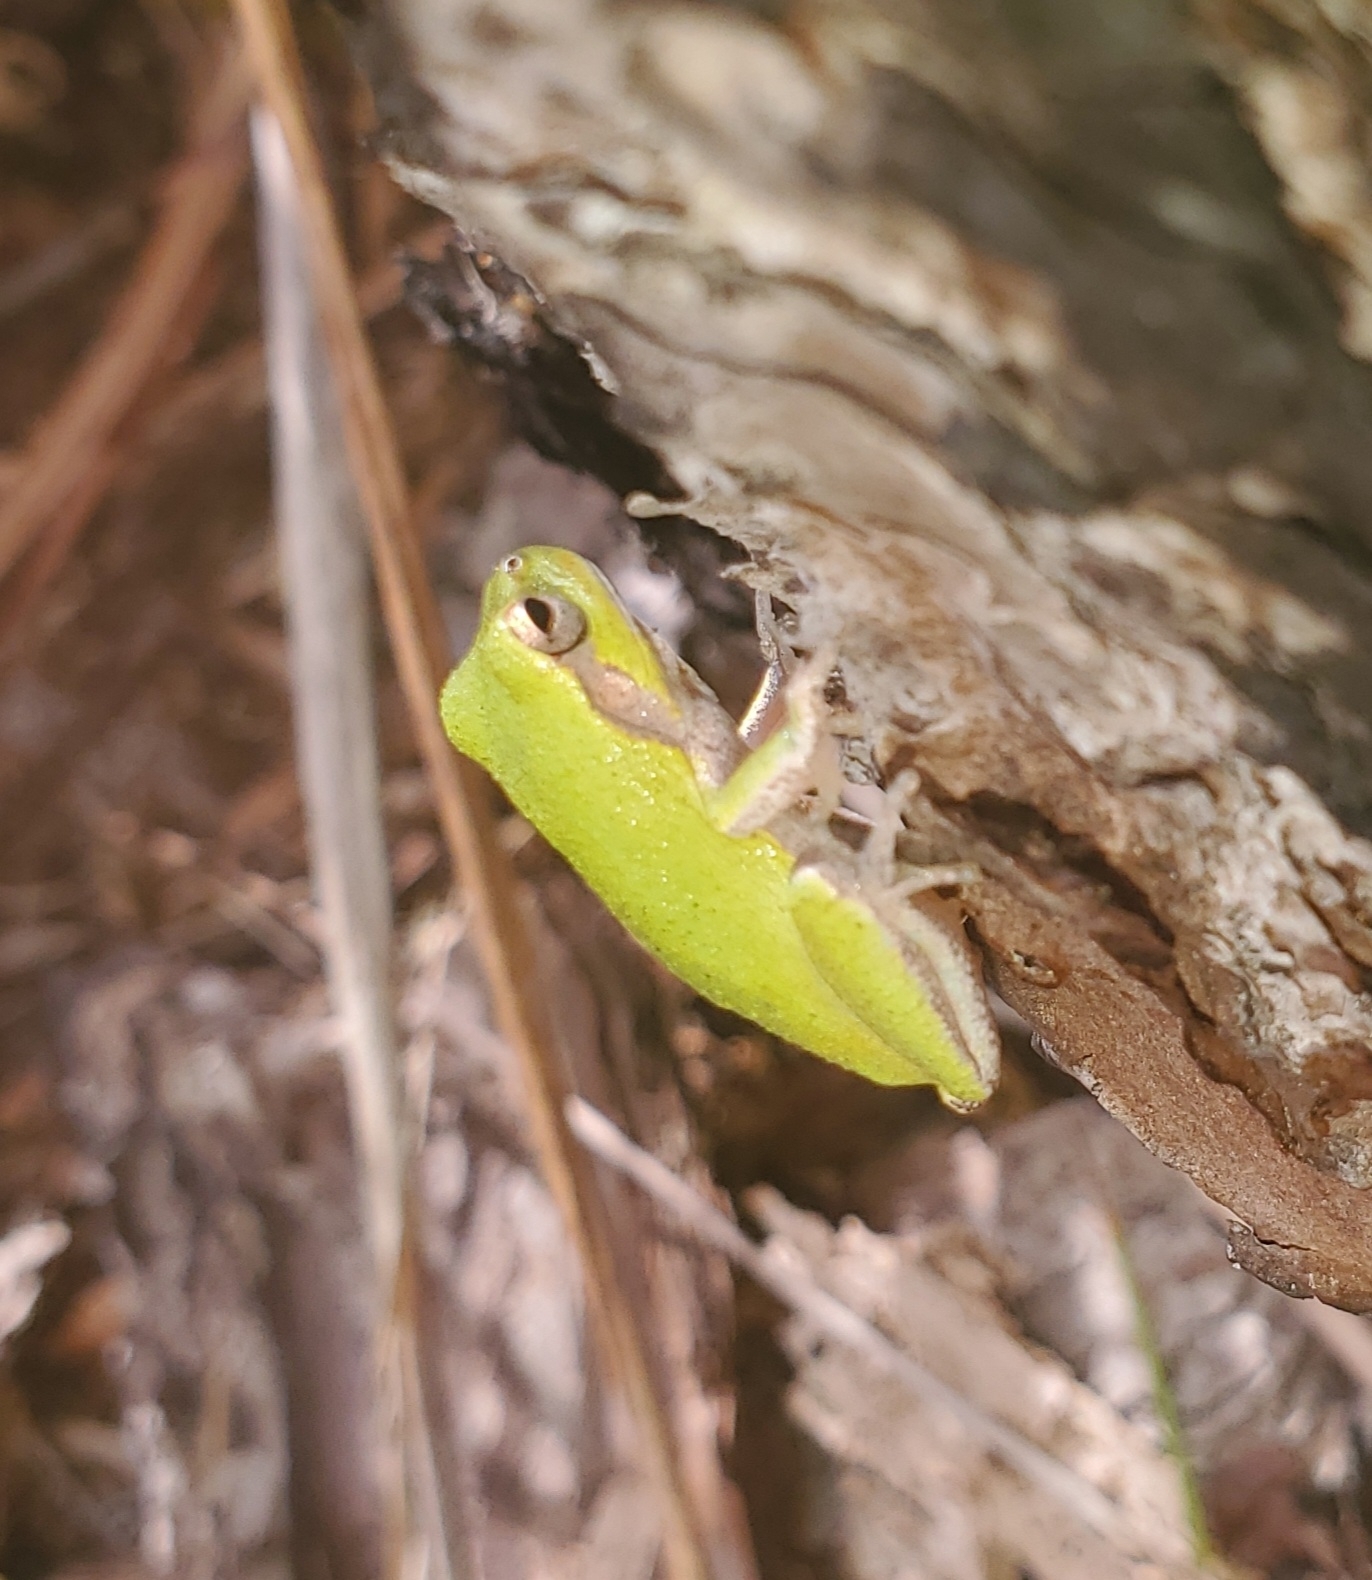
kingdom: Animalia
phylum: Chordata
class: Amphibia
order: Anura
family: Hylidae
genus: Hyla
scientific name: Hyla femoralis
